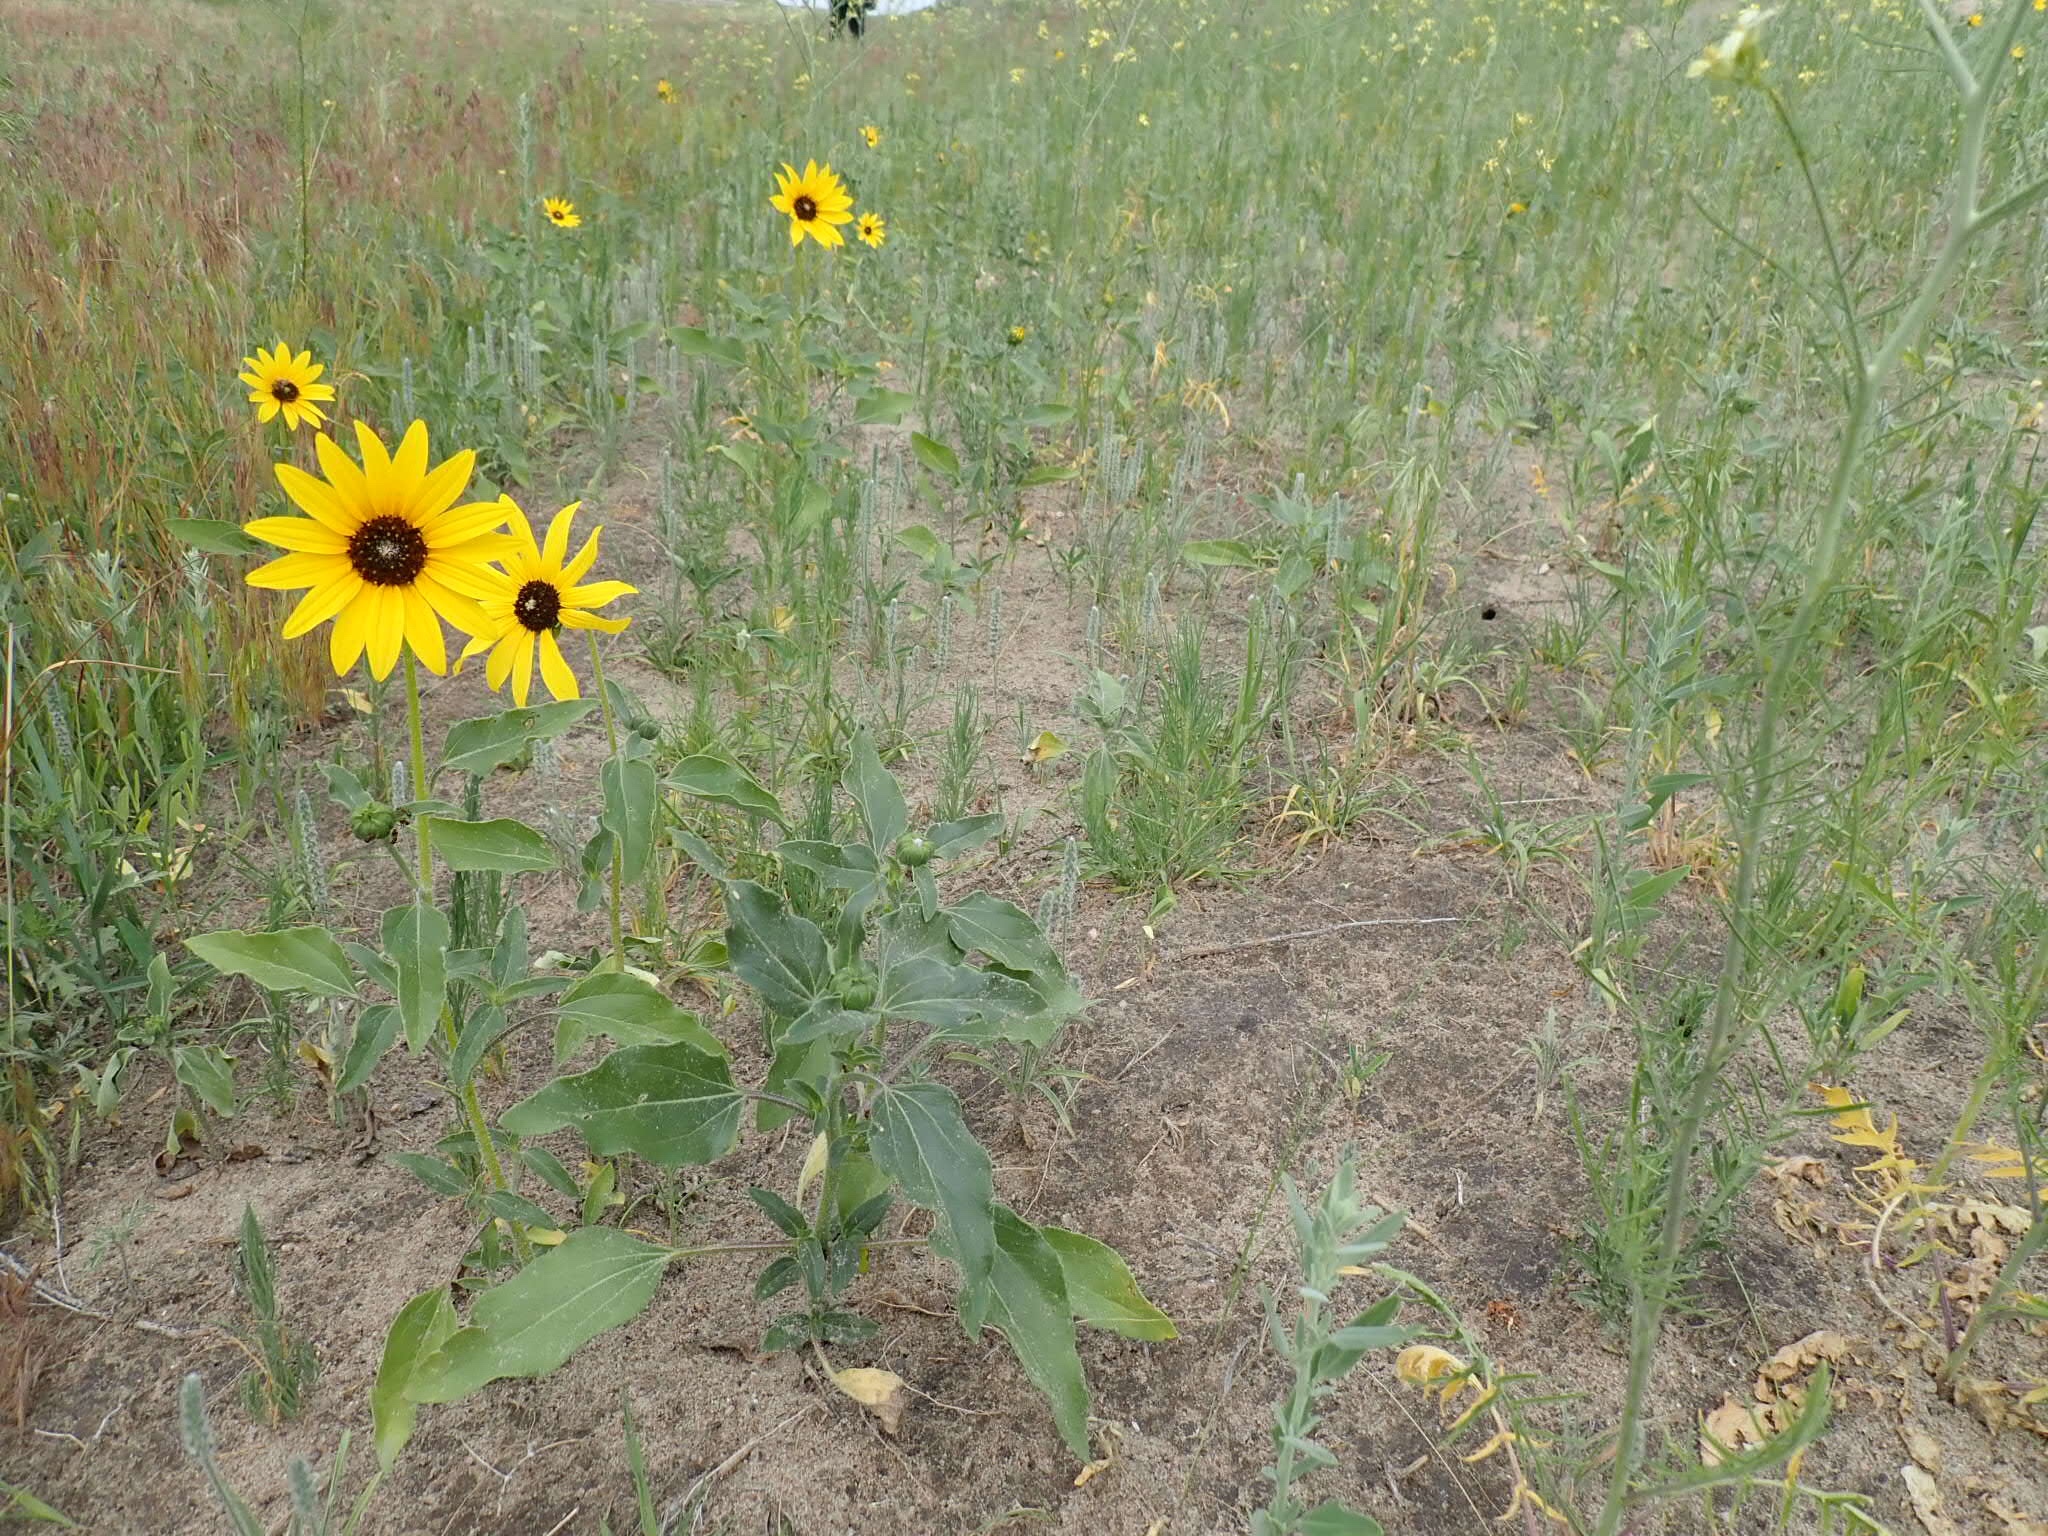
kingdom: Plantae
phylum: Tracheophyta
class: Magnoliopsida
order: Asterales
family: Asteraceae
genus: Helianthus
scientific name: Helianthus annuus
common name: Sunflower
